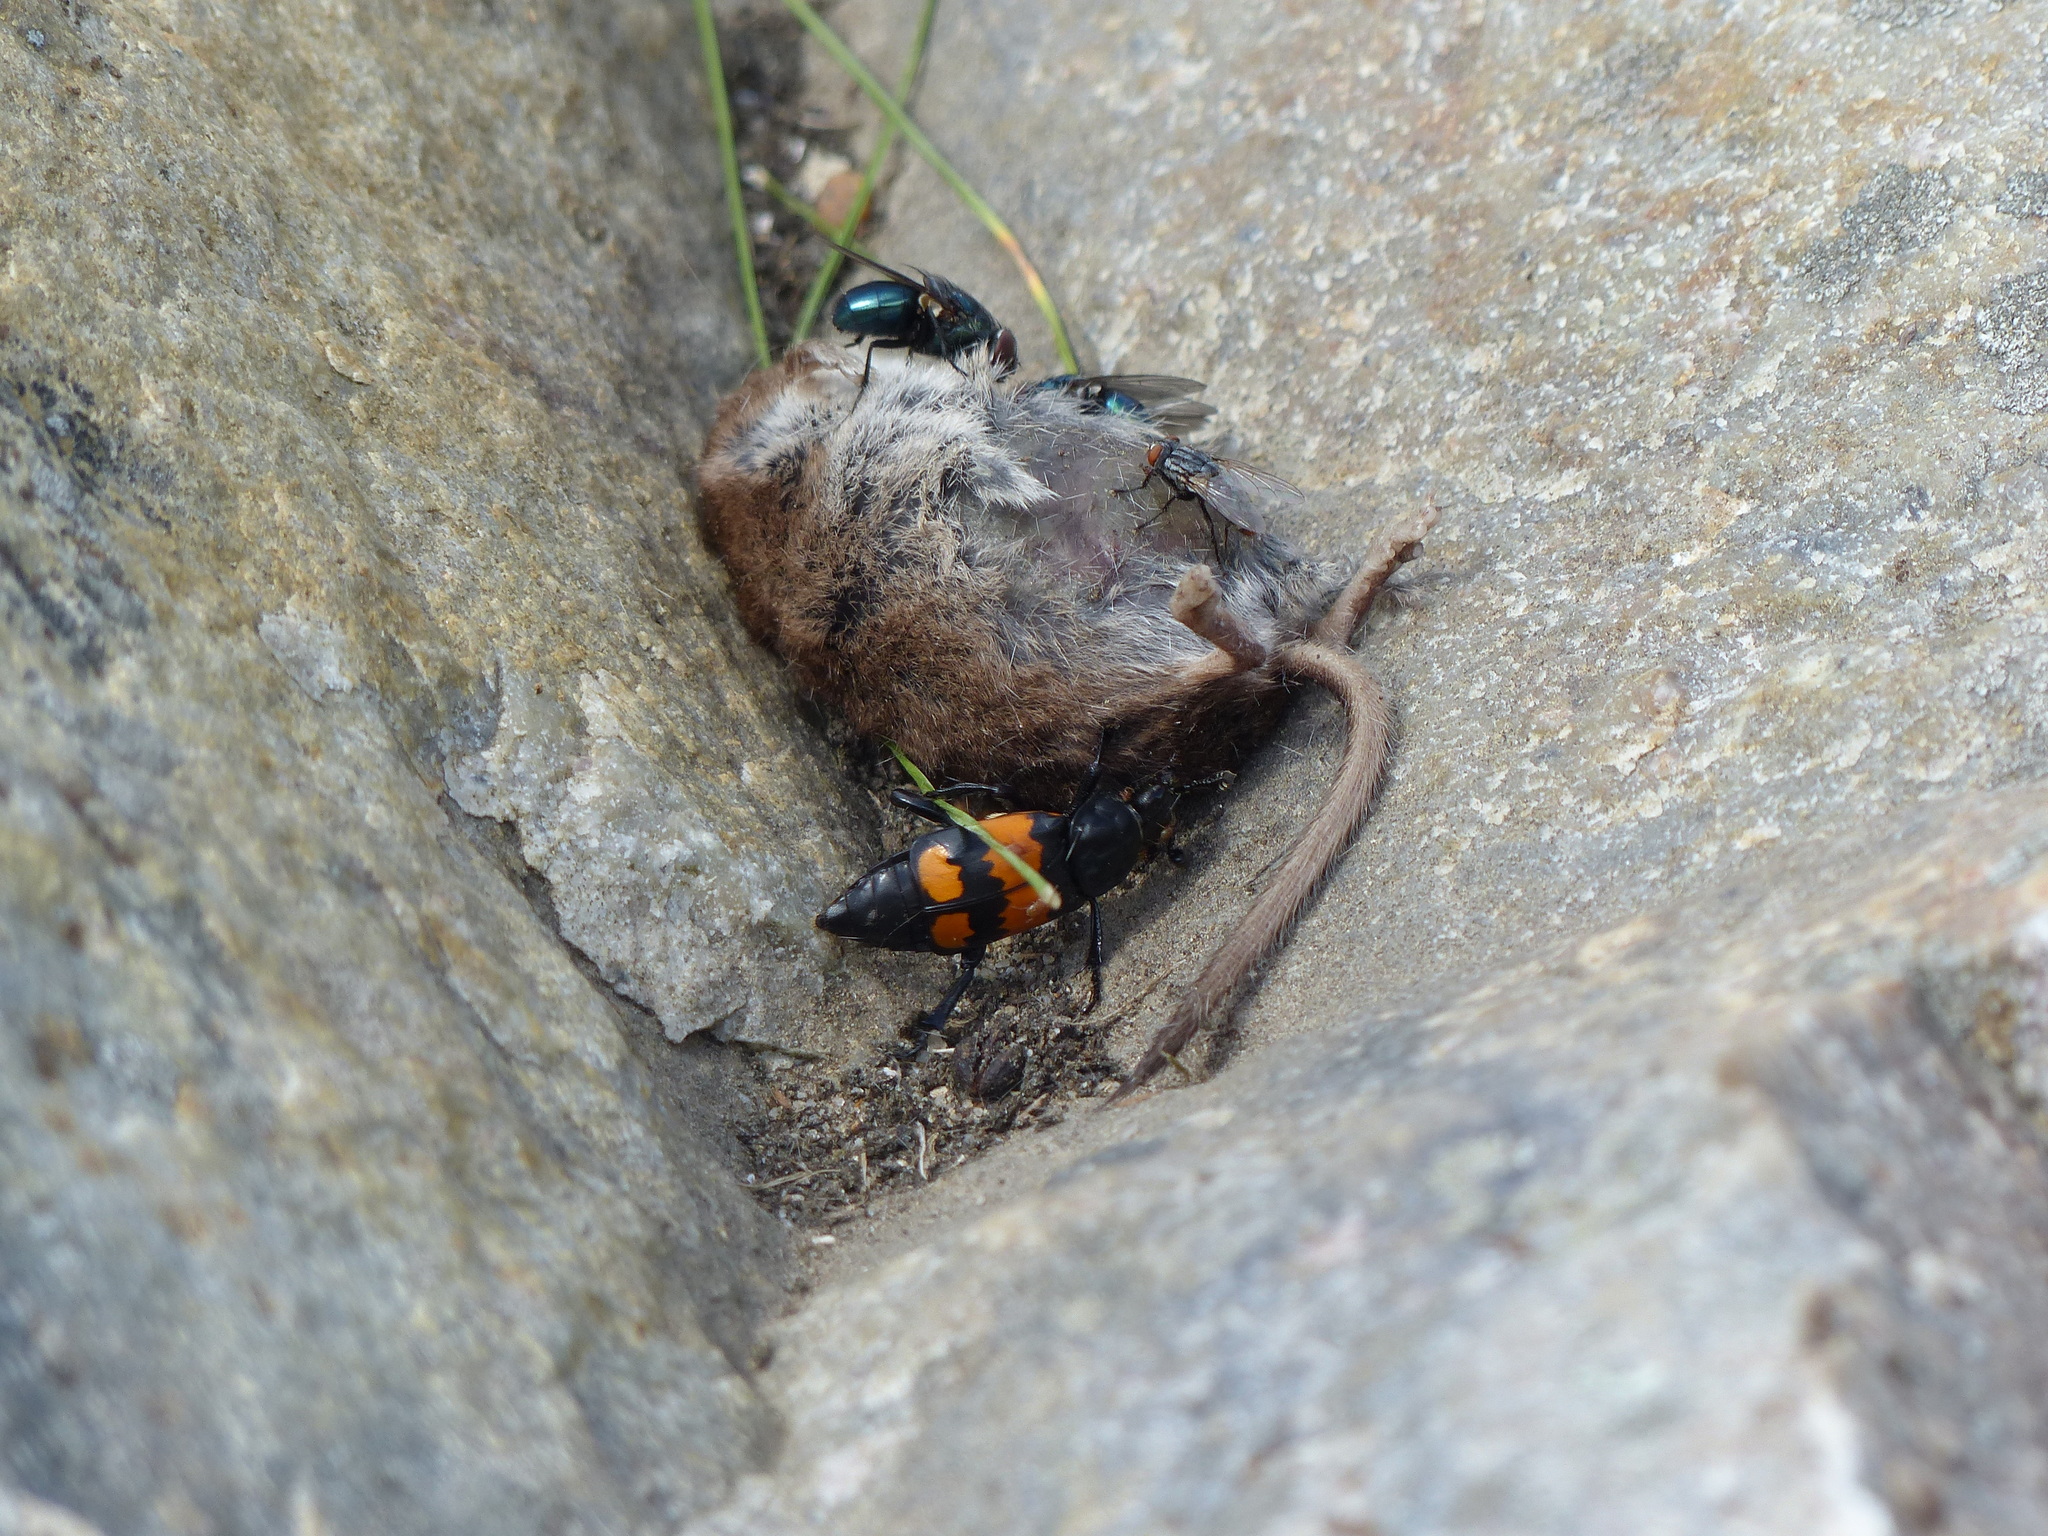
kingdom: Animalia
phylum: Arthropoda
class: Insecta
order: Coleoptera
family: Staphylinidae
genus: Nicrophorus
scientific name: Nicrophorus hebes
